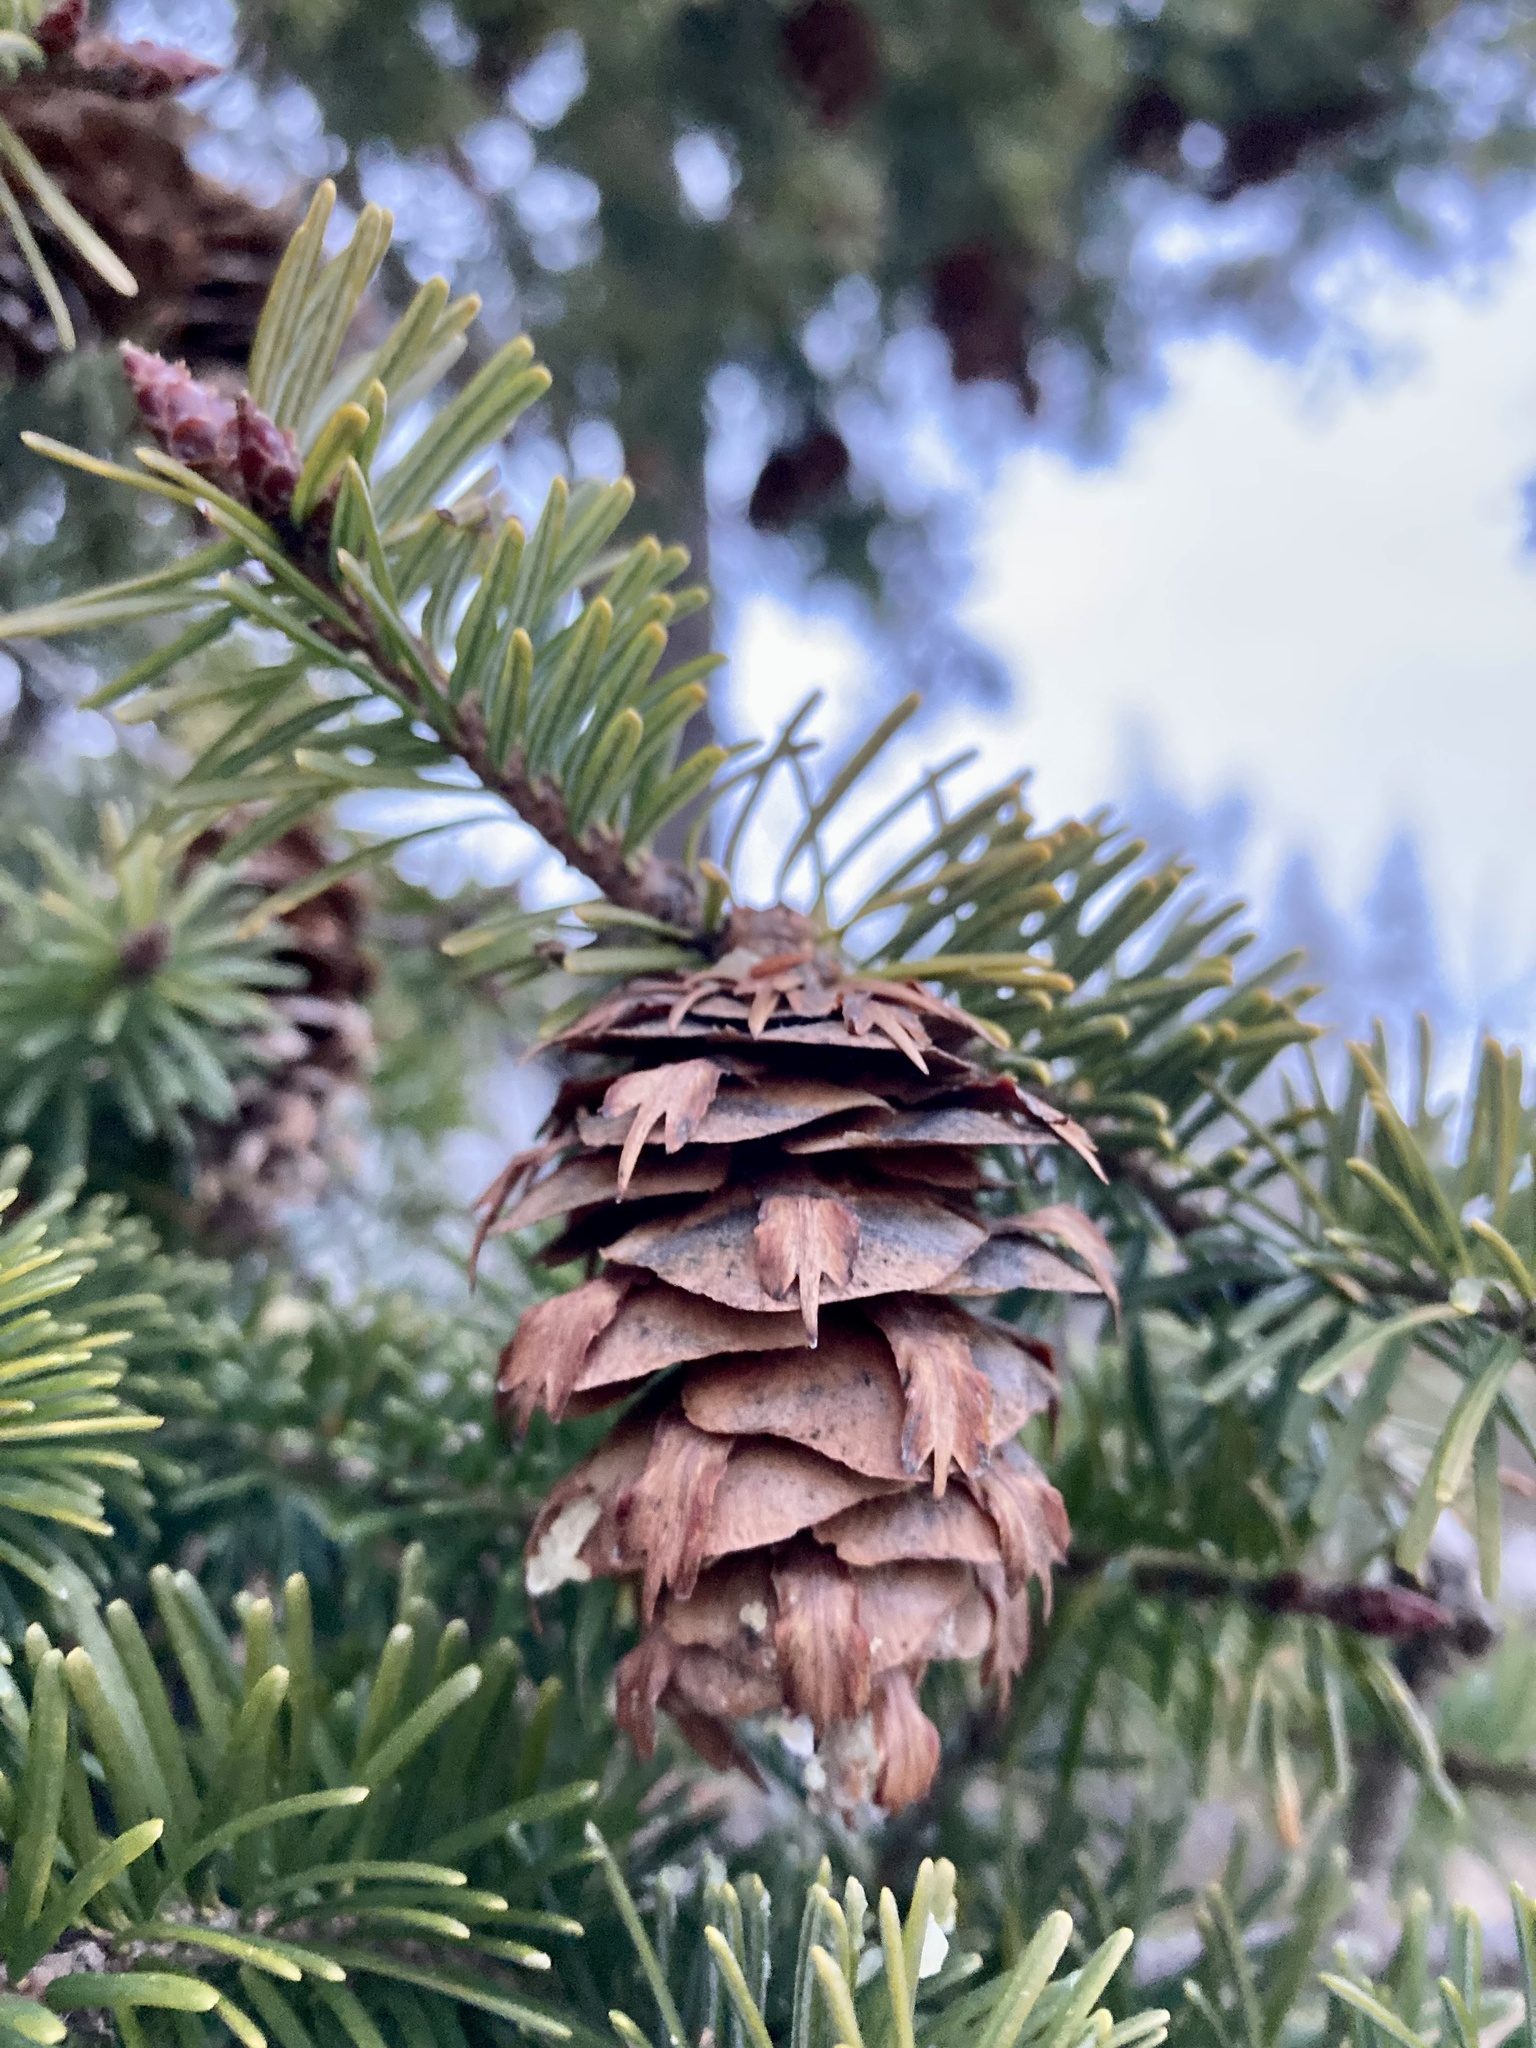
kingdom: Plantae
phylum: Tracheophyta
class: Pinopsida
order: Pinales
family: Pinaceae
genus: Pseudotsuga
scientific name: Pseudotsuga menziesii
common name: Douglas fir
